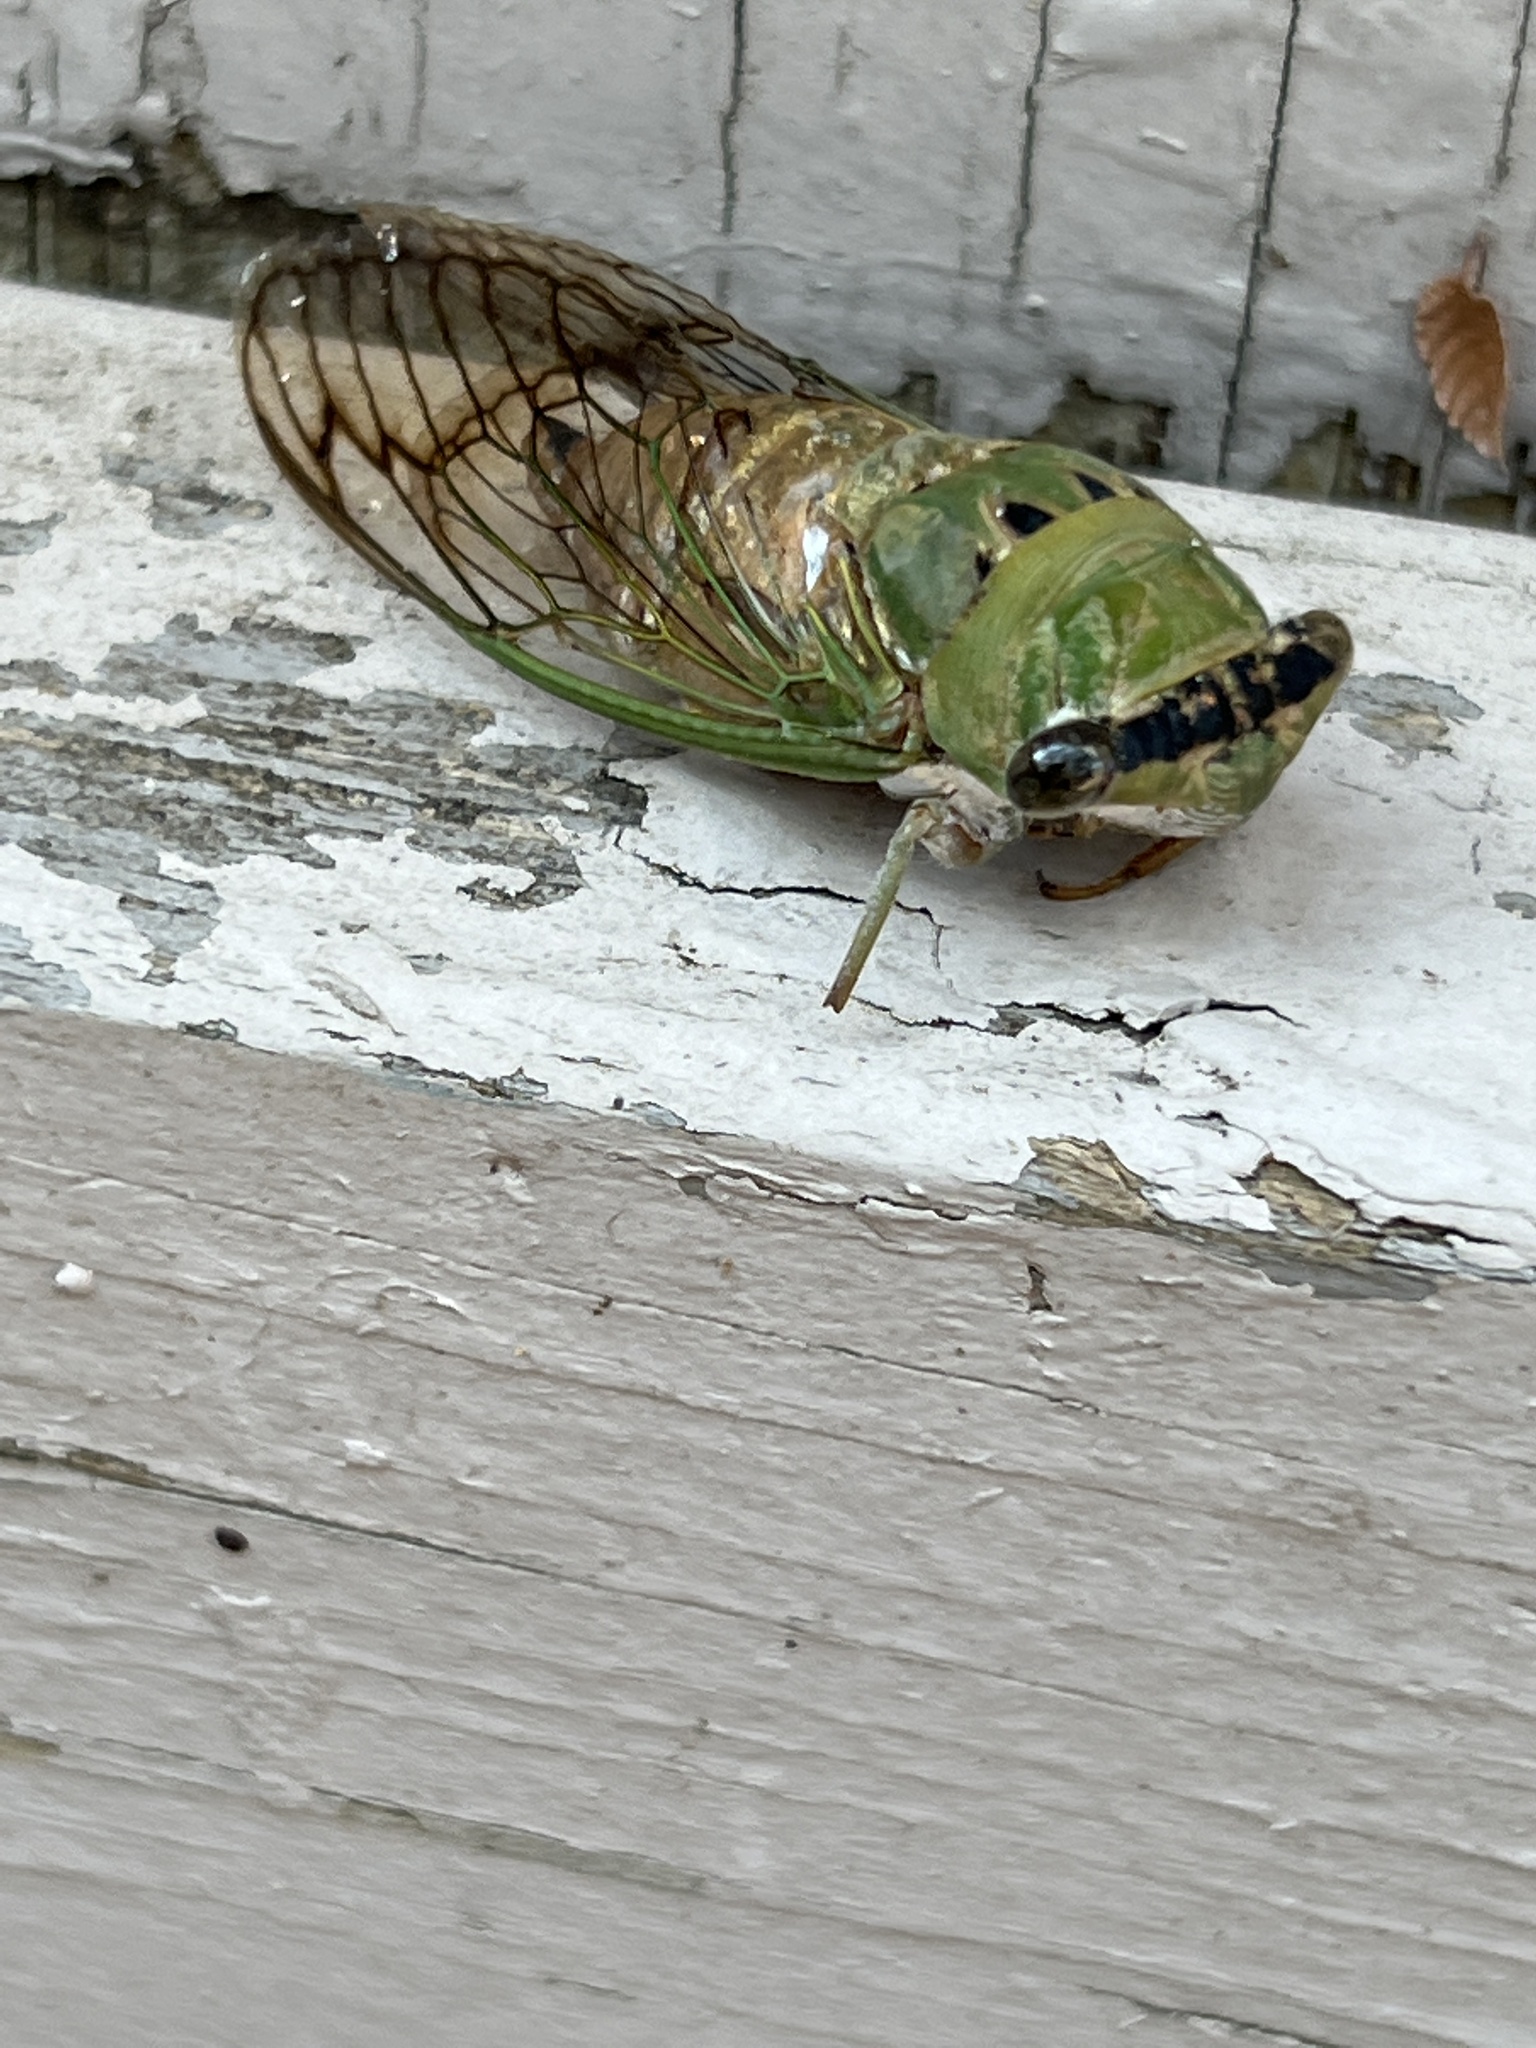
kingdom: Animalia
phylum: Arthropoda
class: Insecta
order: Hemiptera
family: Cicadidae
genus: Neotibicen
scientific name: Neotibicen superbus
